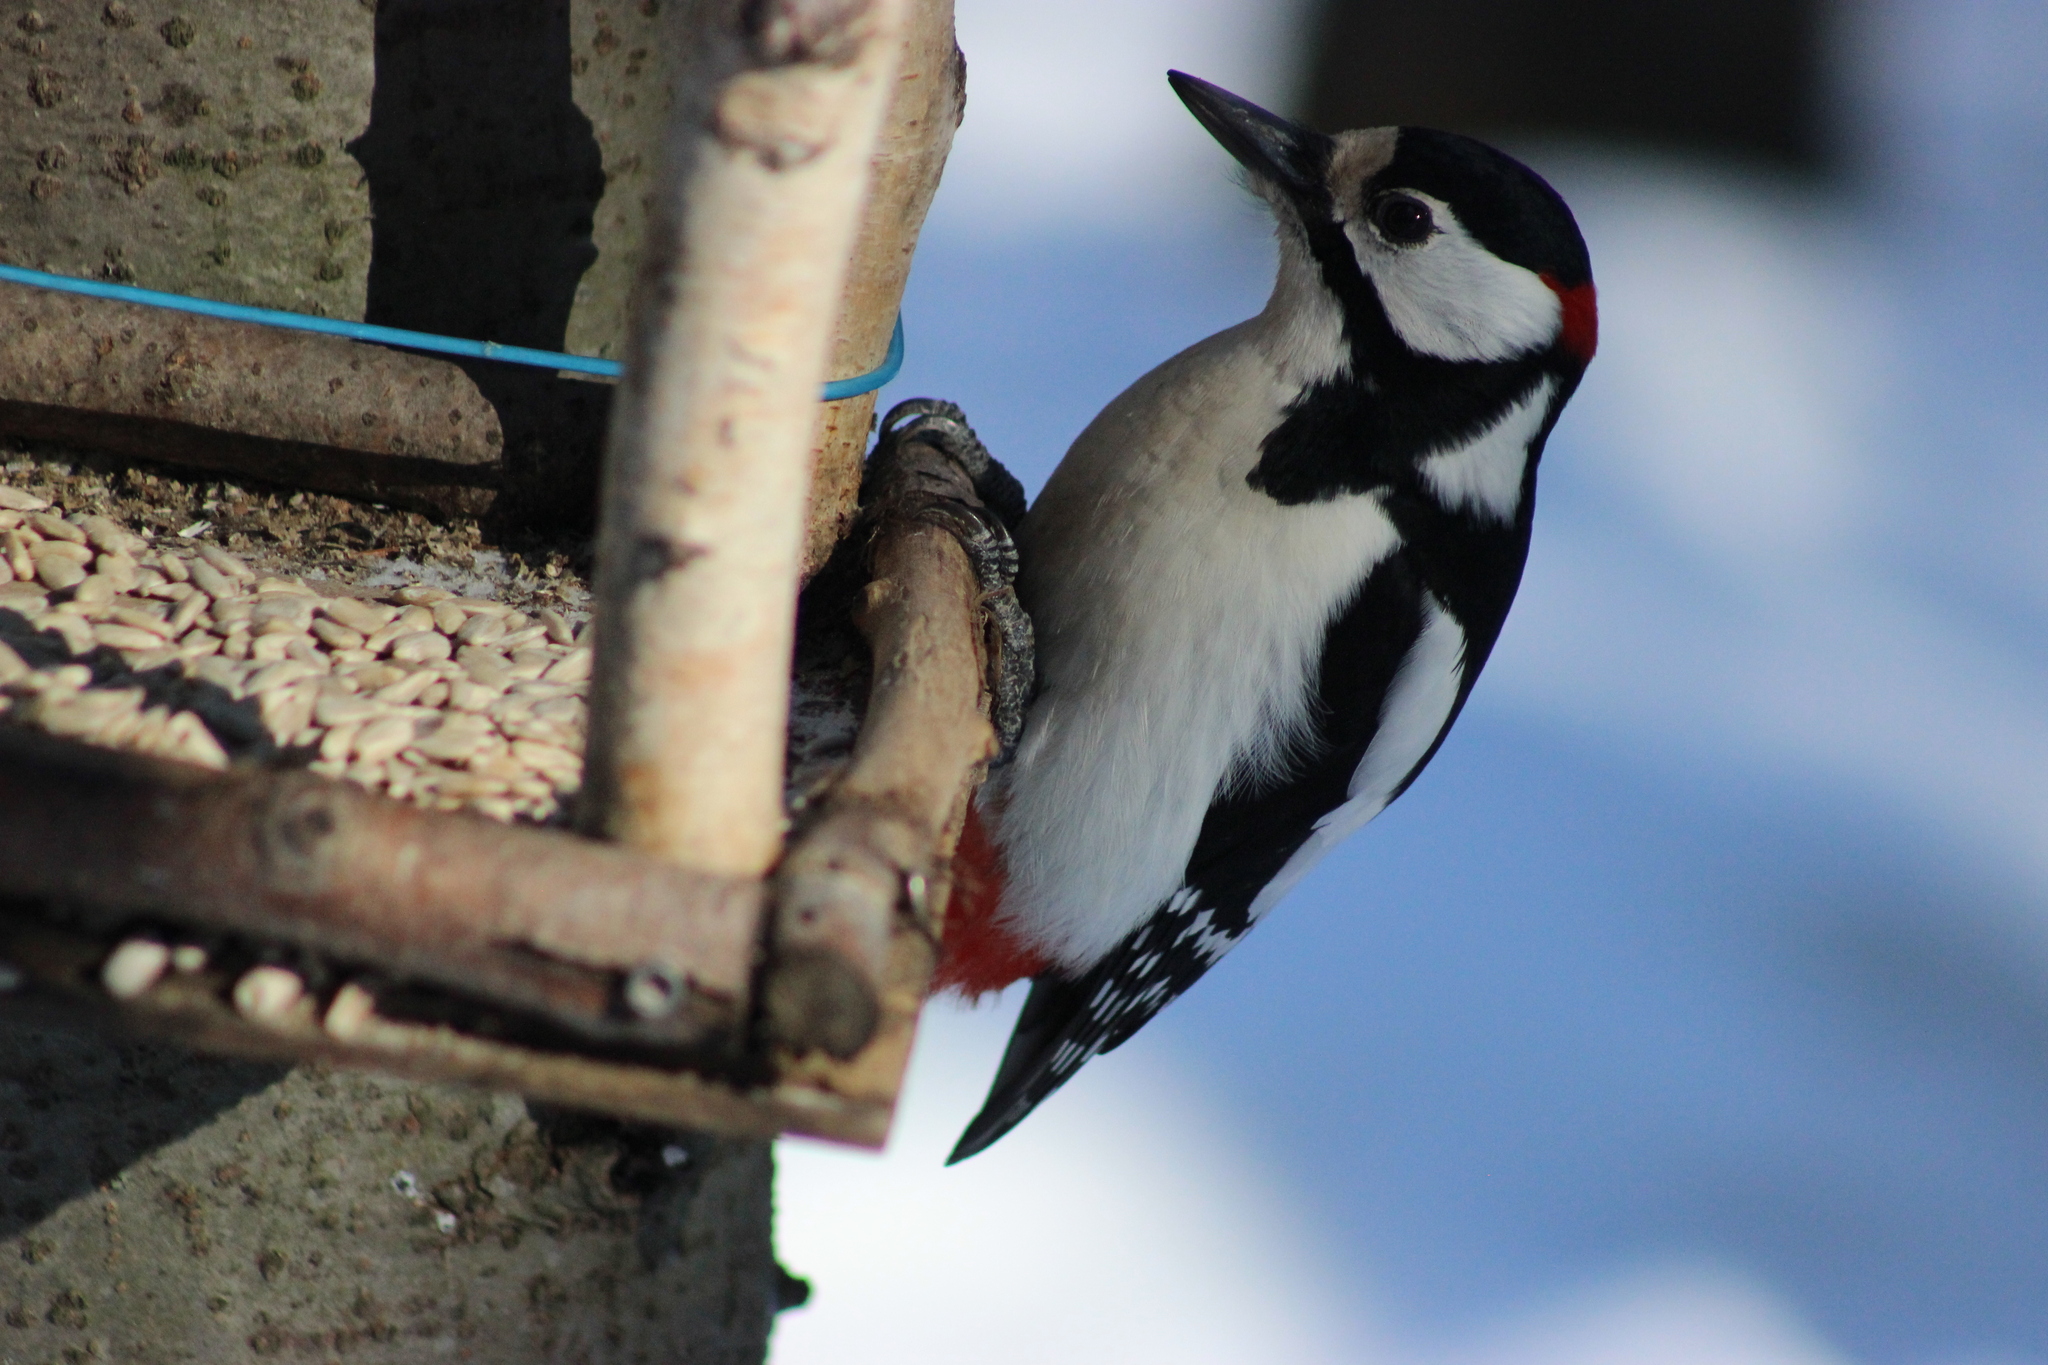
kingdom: Animalia
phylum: Chordata
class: Aves
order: Piciformes
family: Picidae
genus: Dendrocopos
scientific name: Dendrocopos major
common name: Great spotted woodpecker
